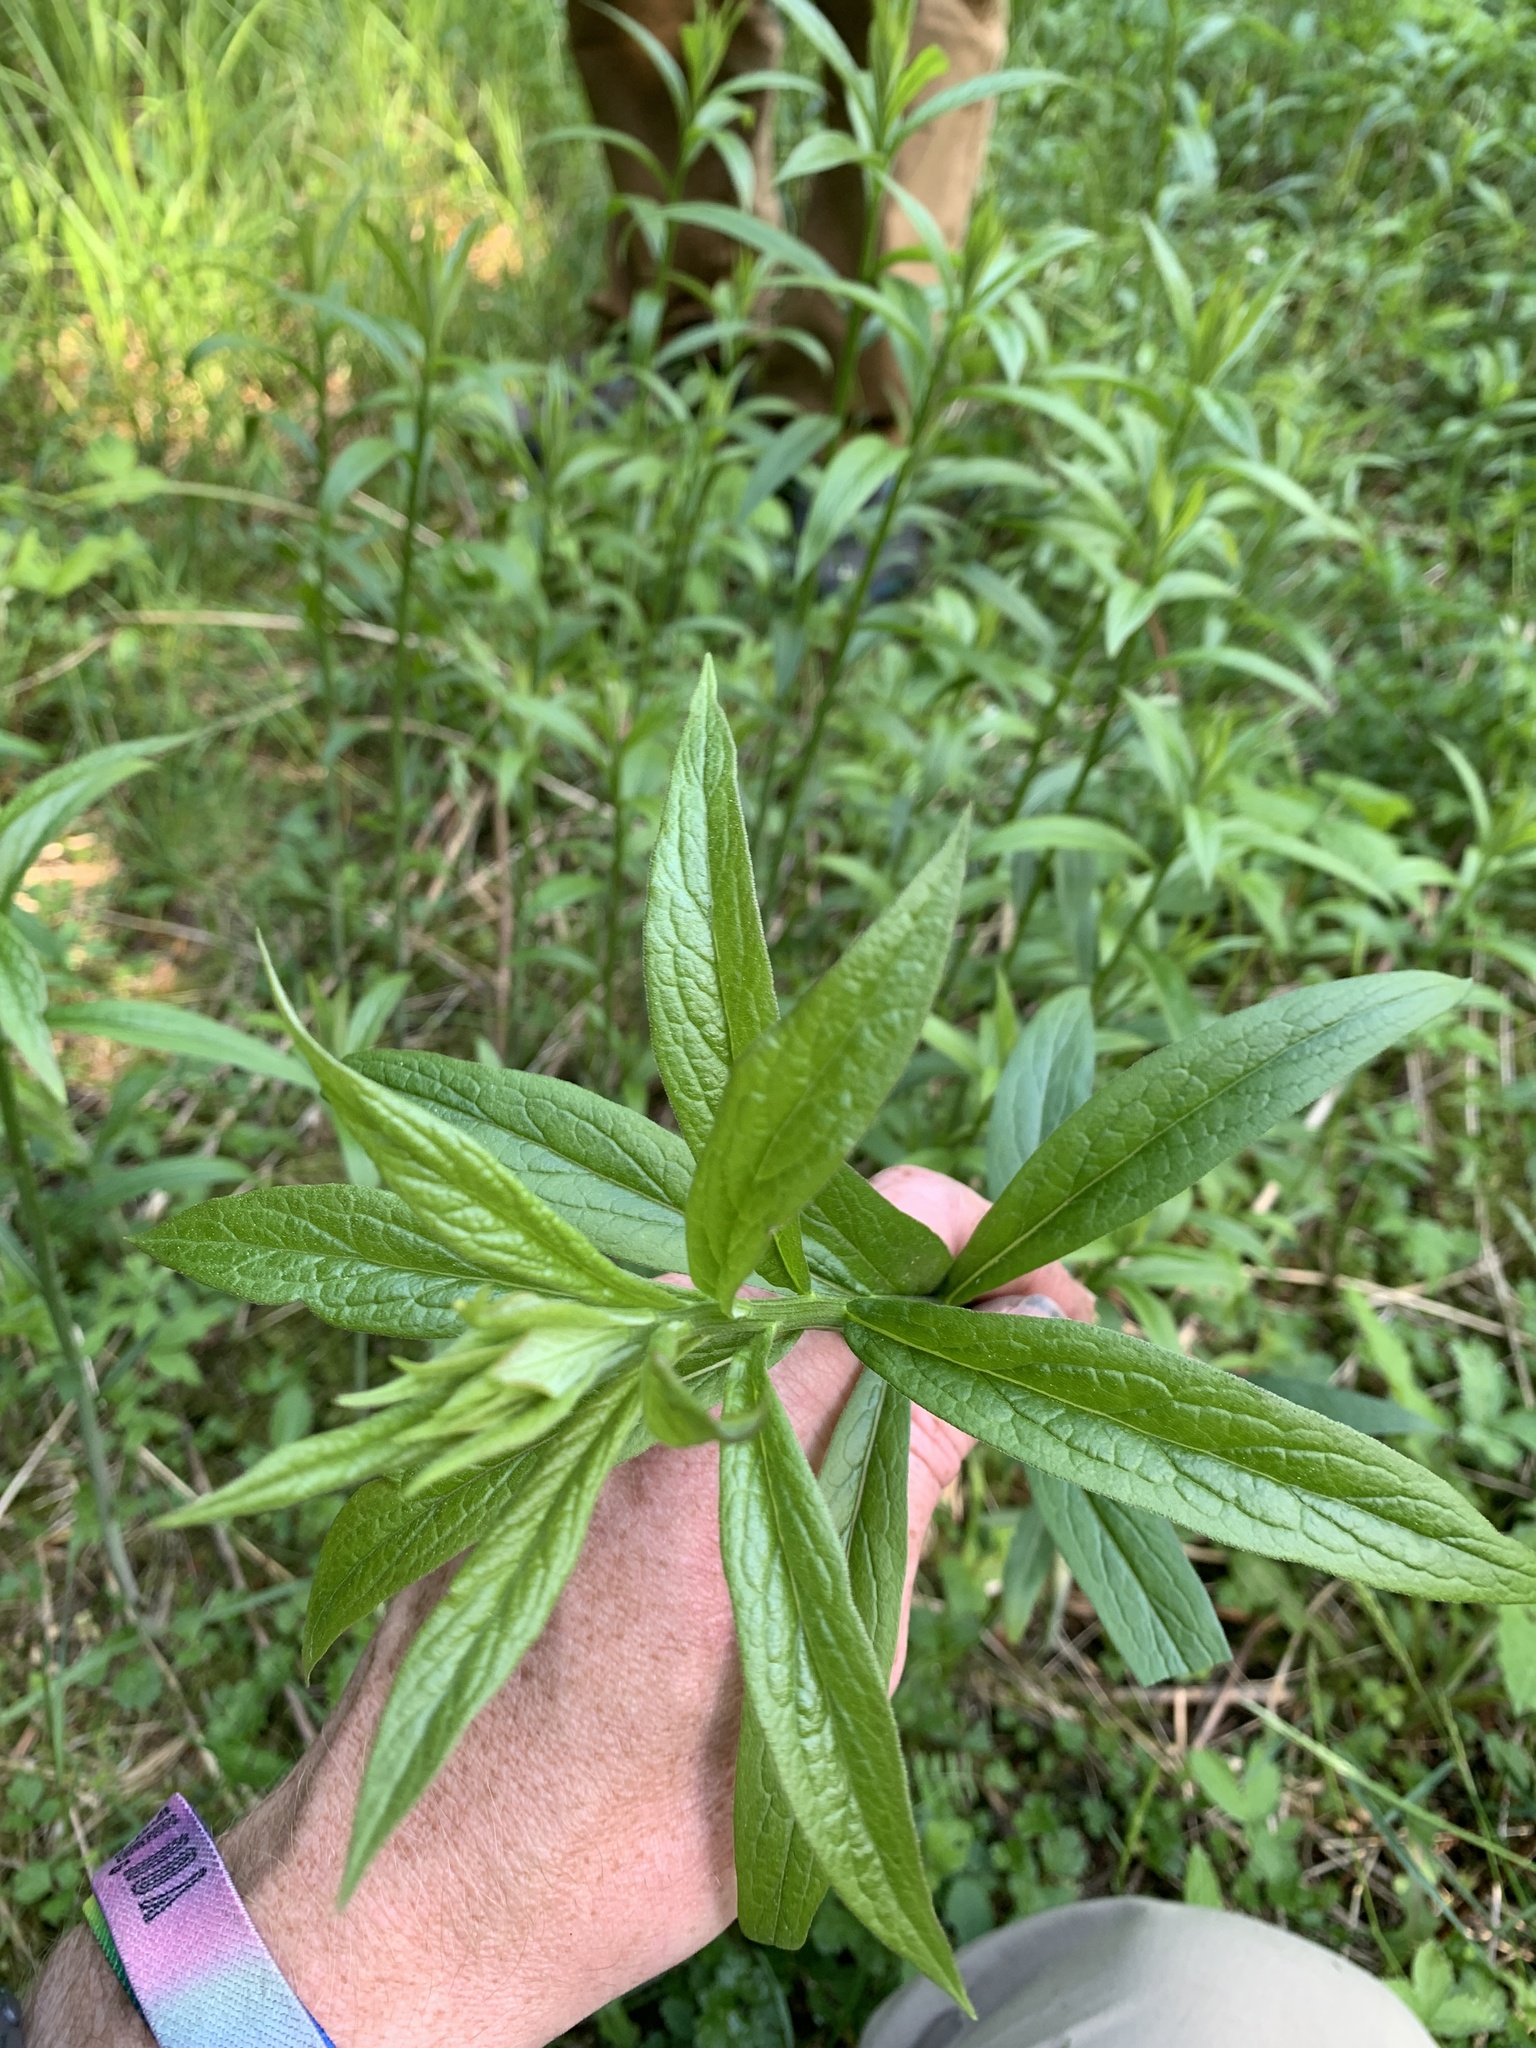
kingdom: Plantae
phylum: Tracheophyta
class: Magnoliopsida
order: Asterales
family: Asteraceae
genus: Doellingeria
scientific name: Doellingeria umbellata
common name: Flat-top white aster
